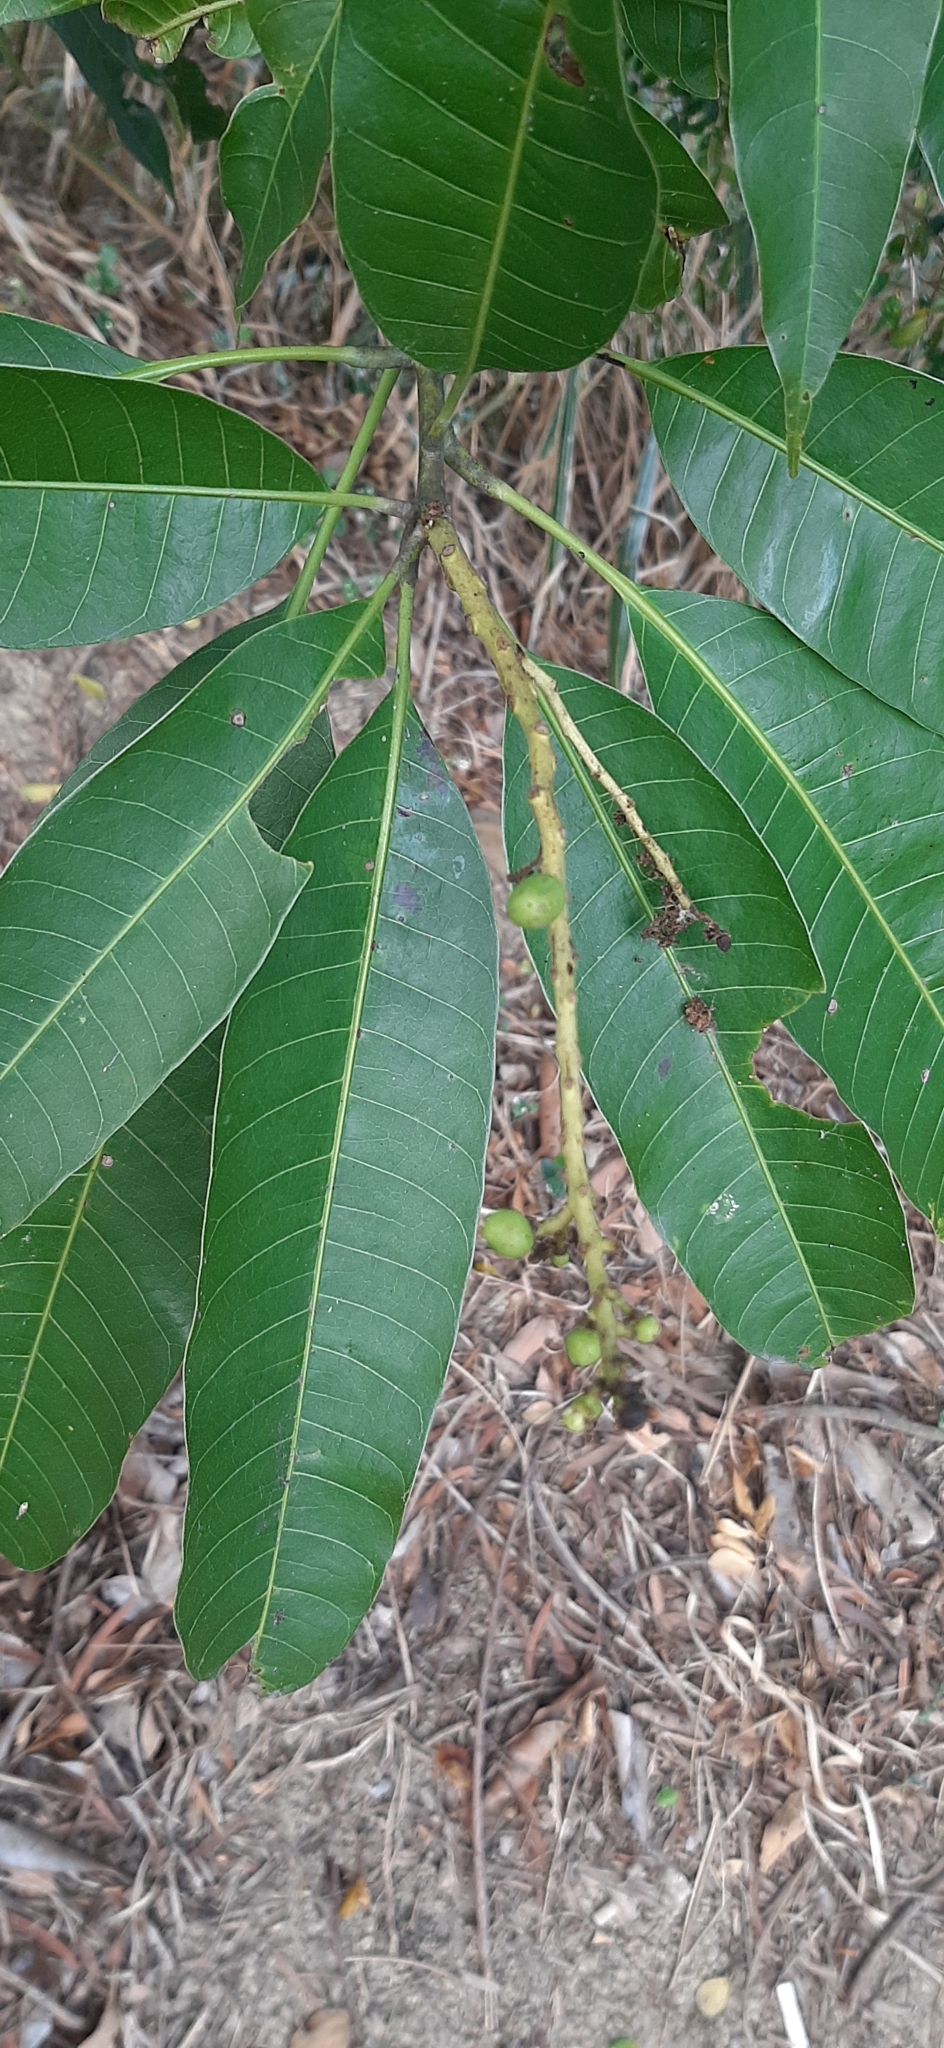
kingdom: Plantae
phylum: Tracheophyta
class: Magnoliopsida
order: Rosales
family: Rosaceae
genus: Rhaphiolepis
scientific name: Rhaphiolepis deflexa
